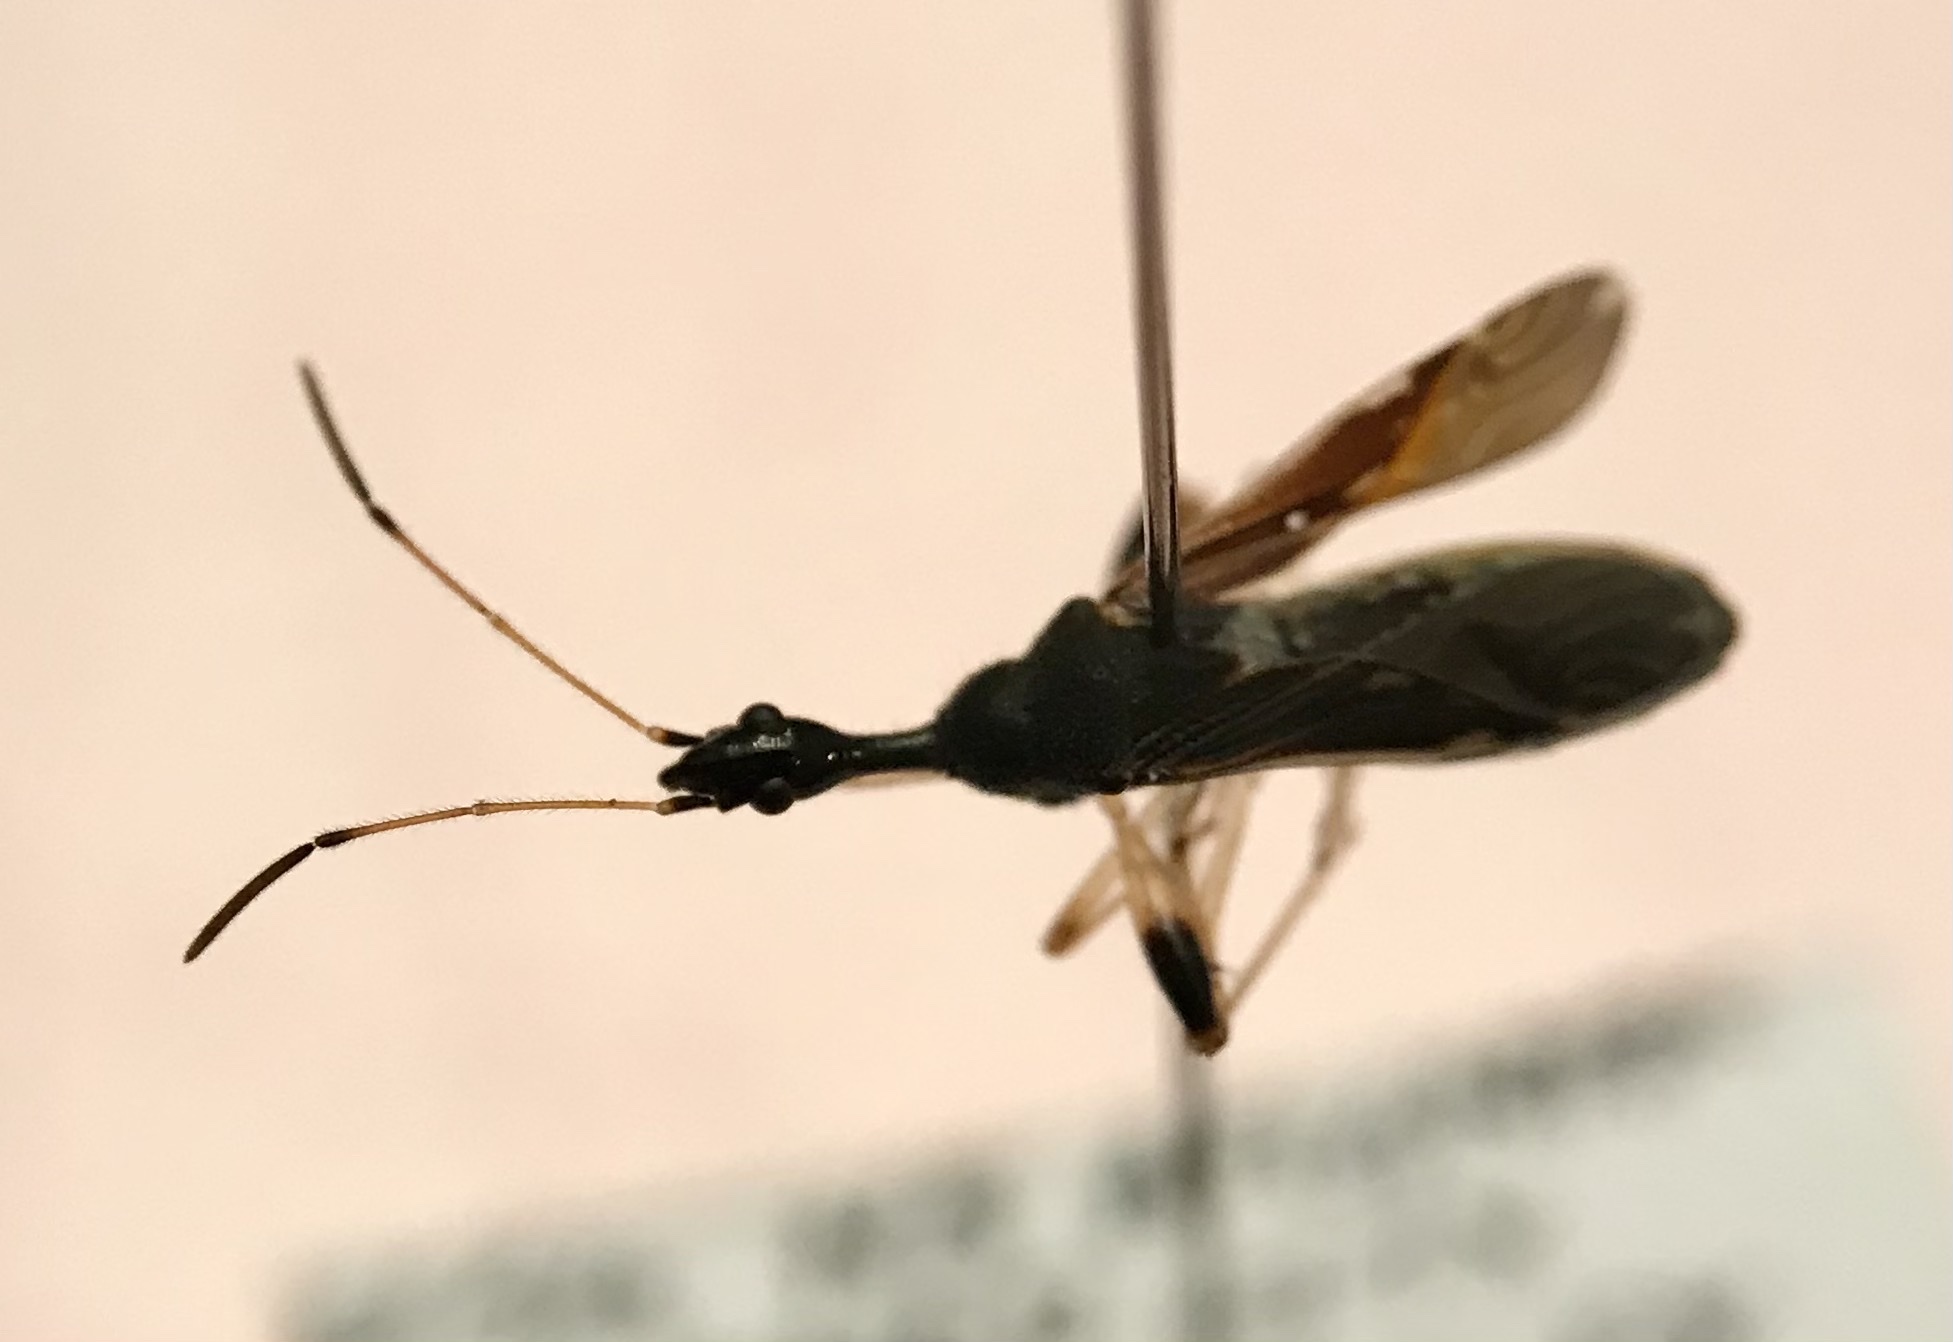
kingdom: Animalia
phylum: Arthropoda
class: Insecta
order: Hemiptera
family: Rhyparochromidae
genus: Myodocha
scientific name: Myodocha serripes
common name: Long-necked seed bug
